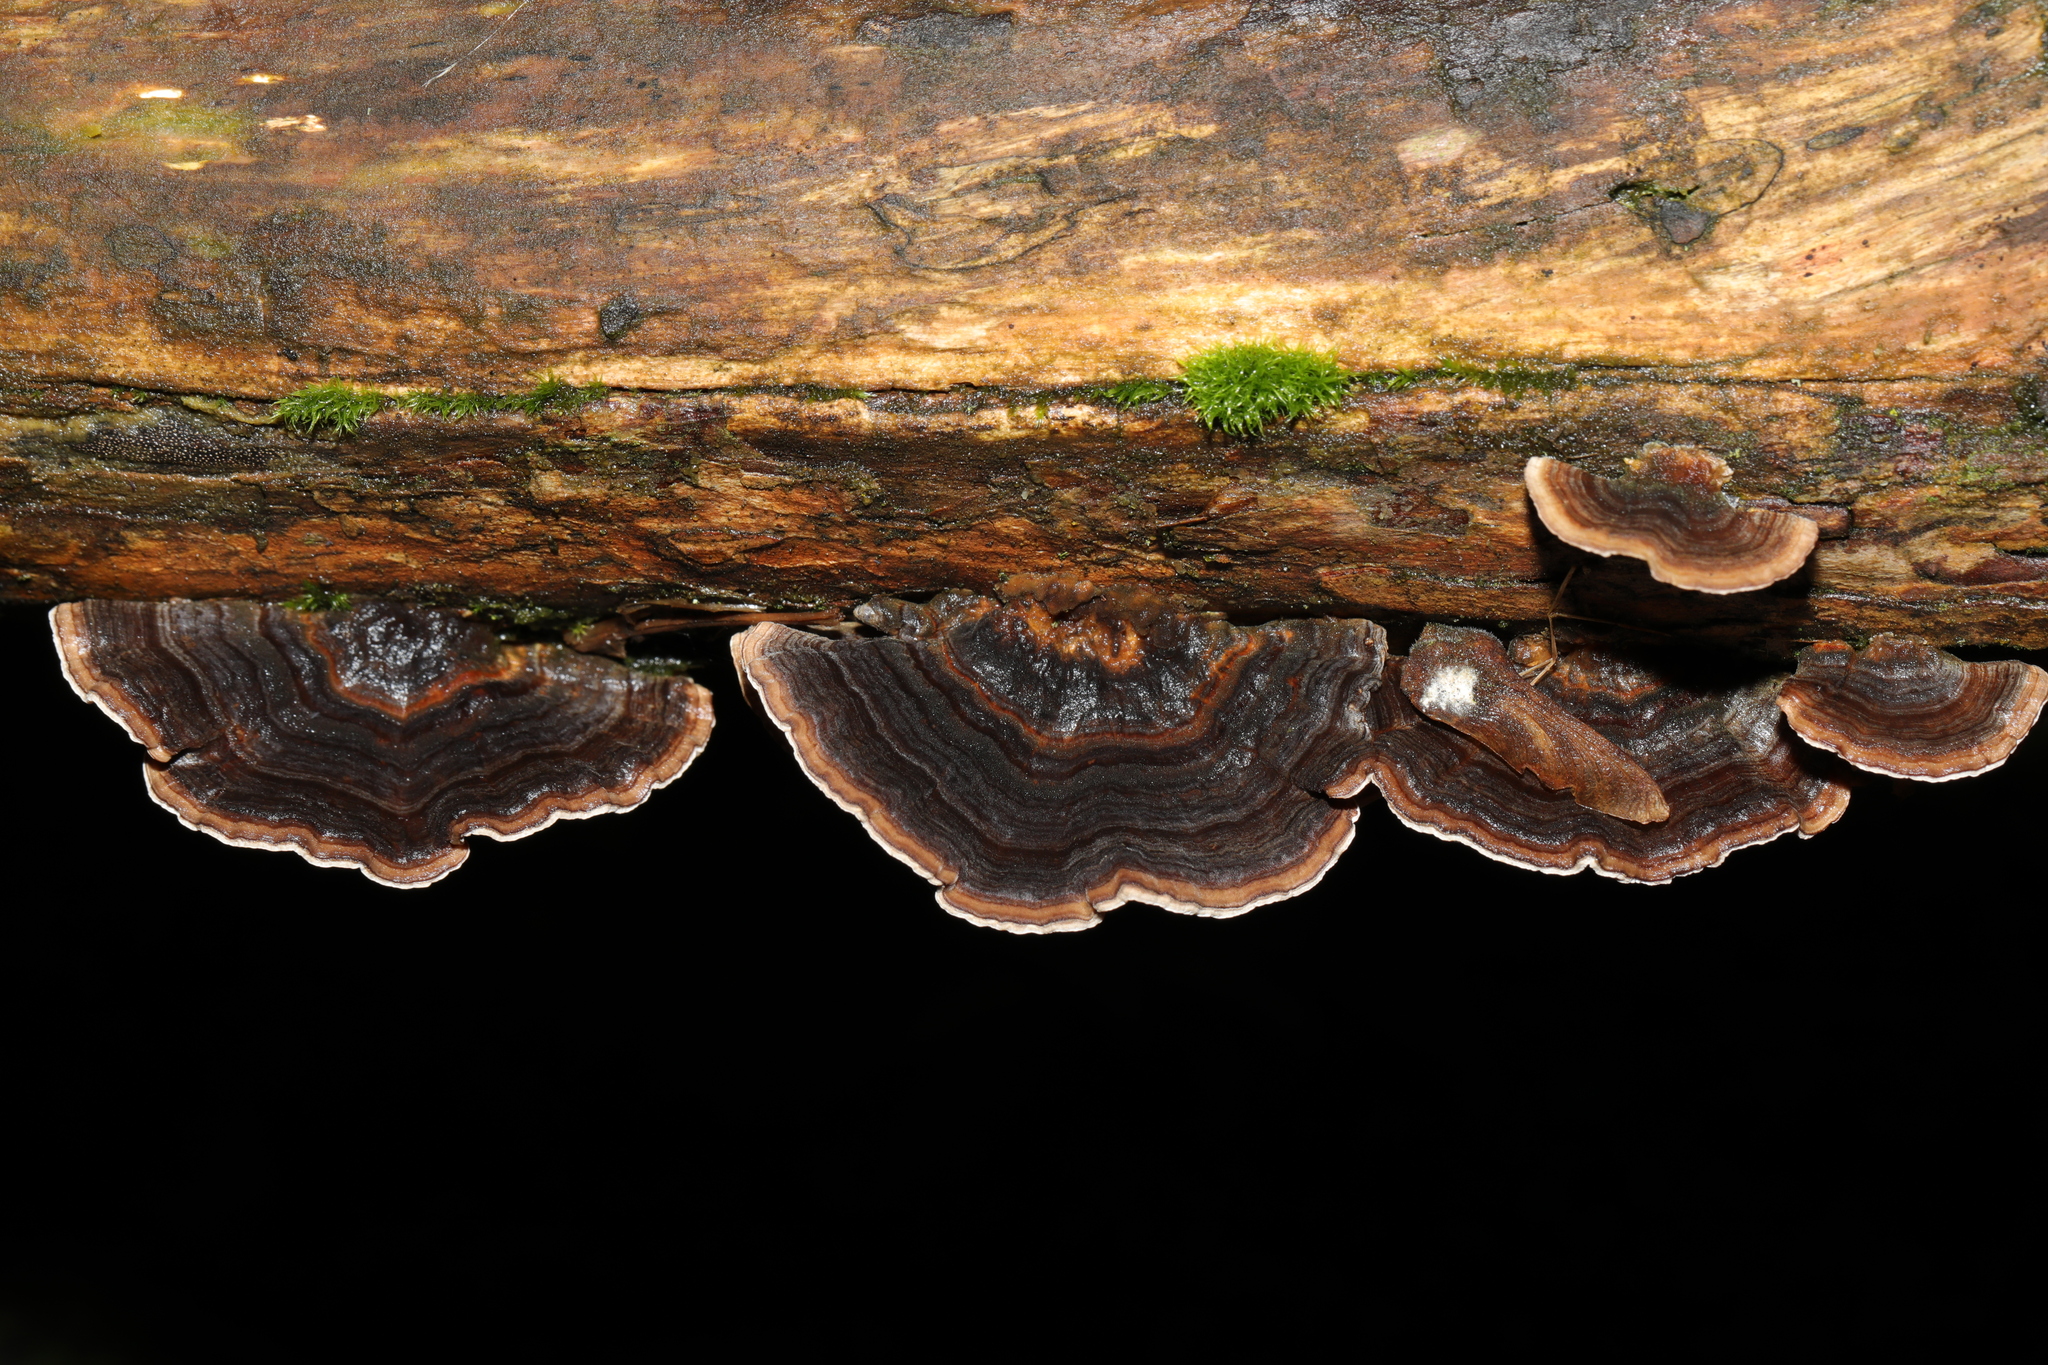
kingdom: Fungi
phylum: Basidiomycota
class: Agaricomycetes
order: Polyporales
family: Polyporaceae
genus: Trametes
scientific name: Trametes versicolor
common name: Turkeytail
